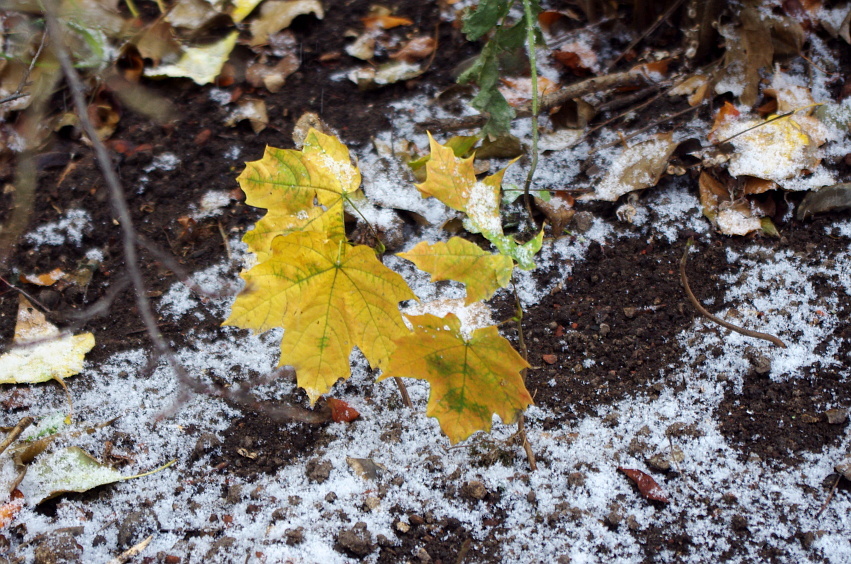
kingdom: Plantae
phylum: Tracheophyta
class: Magnoliopsida
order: Sapindales
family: Sapindaceae
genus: Acer
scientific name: Acer platanoides
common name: Norway maple
